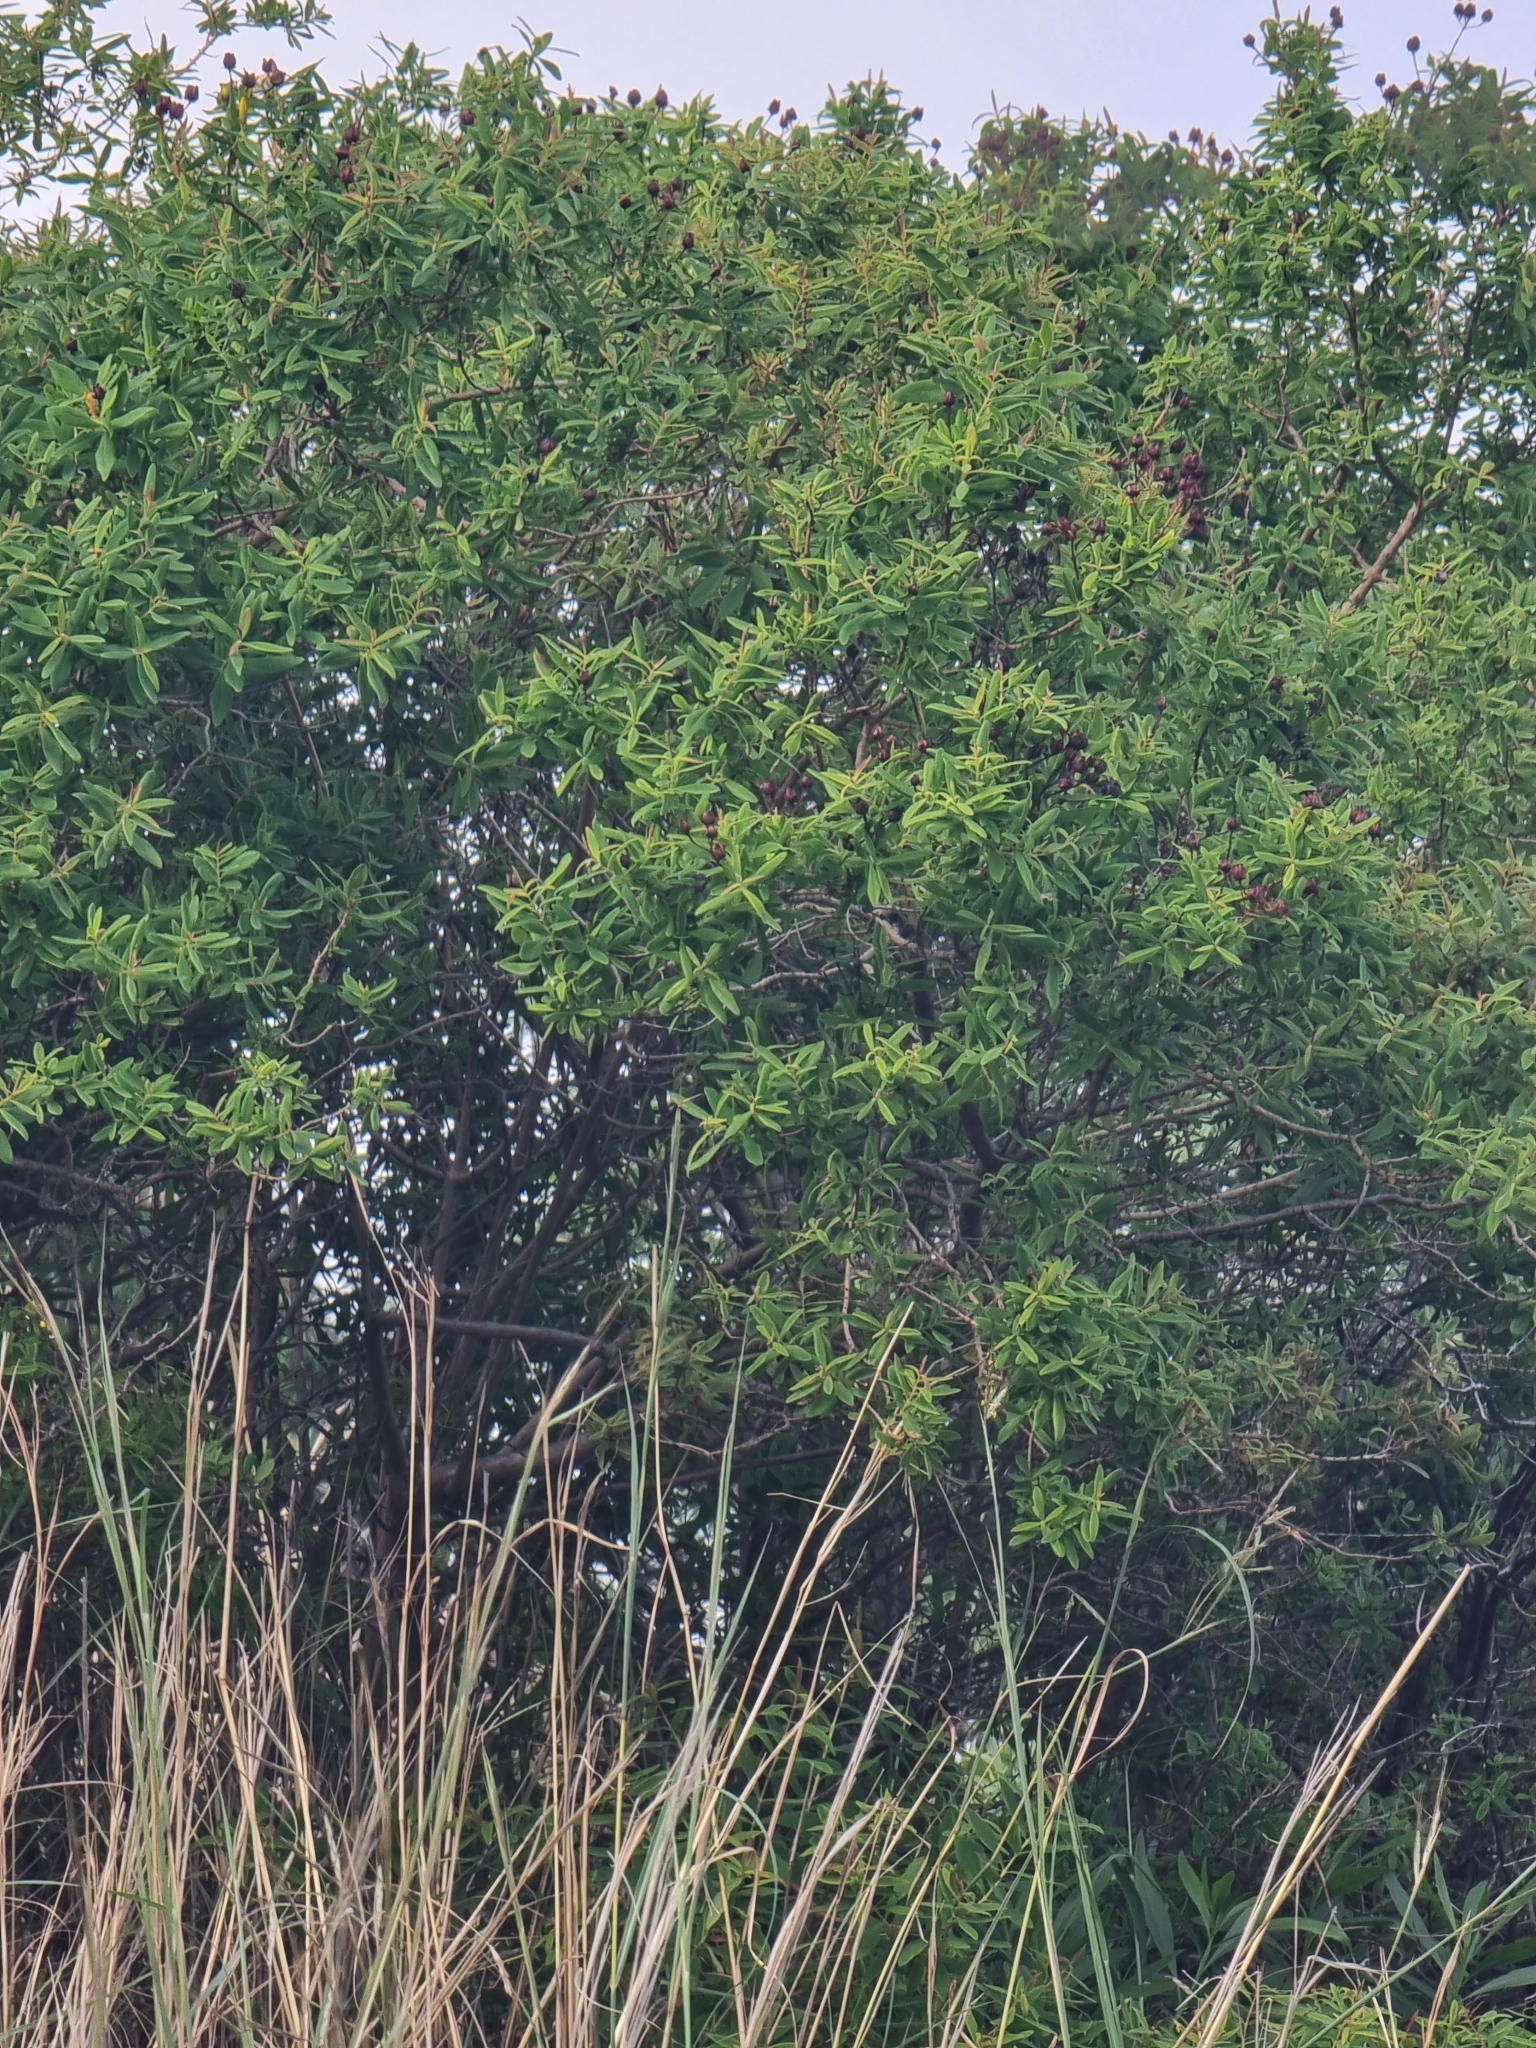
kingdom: Plantae
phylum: Tracheophyta
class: Magnoliopsida
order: Malpighiales
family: Hypericaceae
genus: Hypericum
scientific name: Hypericum canariense
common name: Canary island st. johnswort
